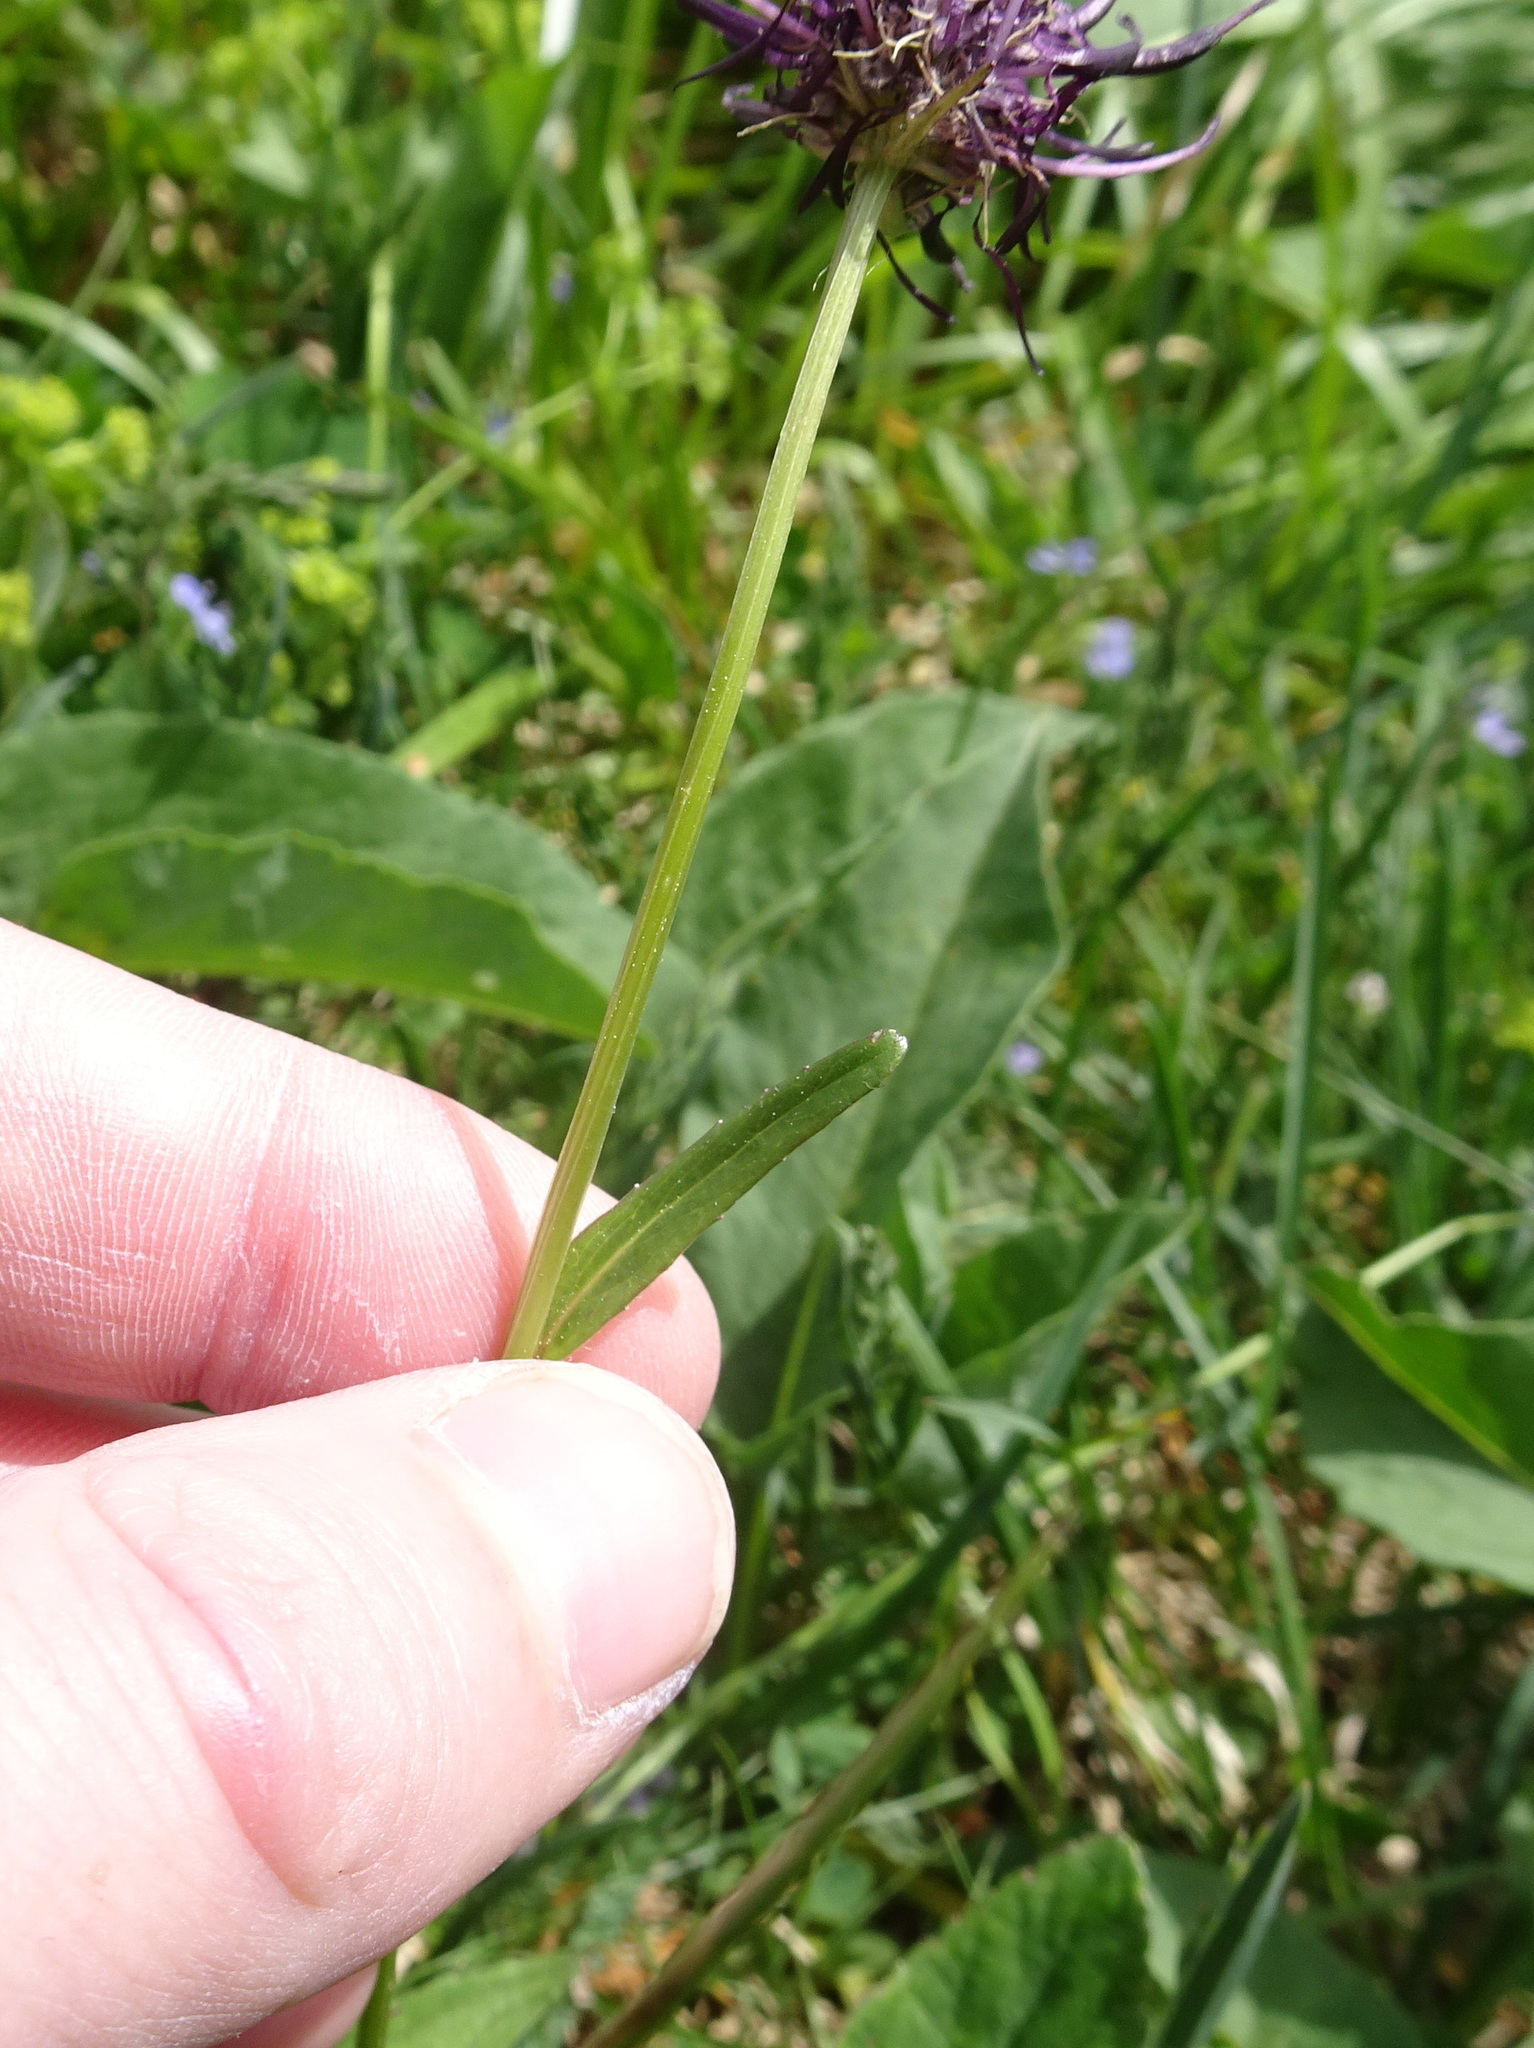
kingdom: Plantae
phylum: Tracheophyta
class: Magnoliopsida
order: Asterales
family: Campanulaceae
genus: Phyteuma
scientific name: Phyteuma nigrum
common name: Black rampion
